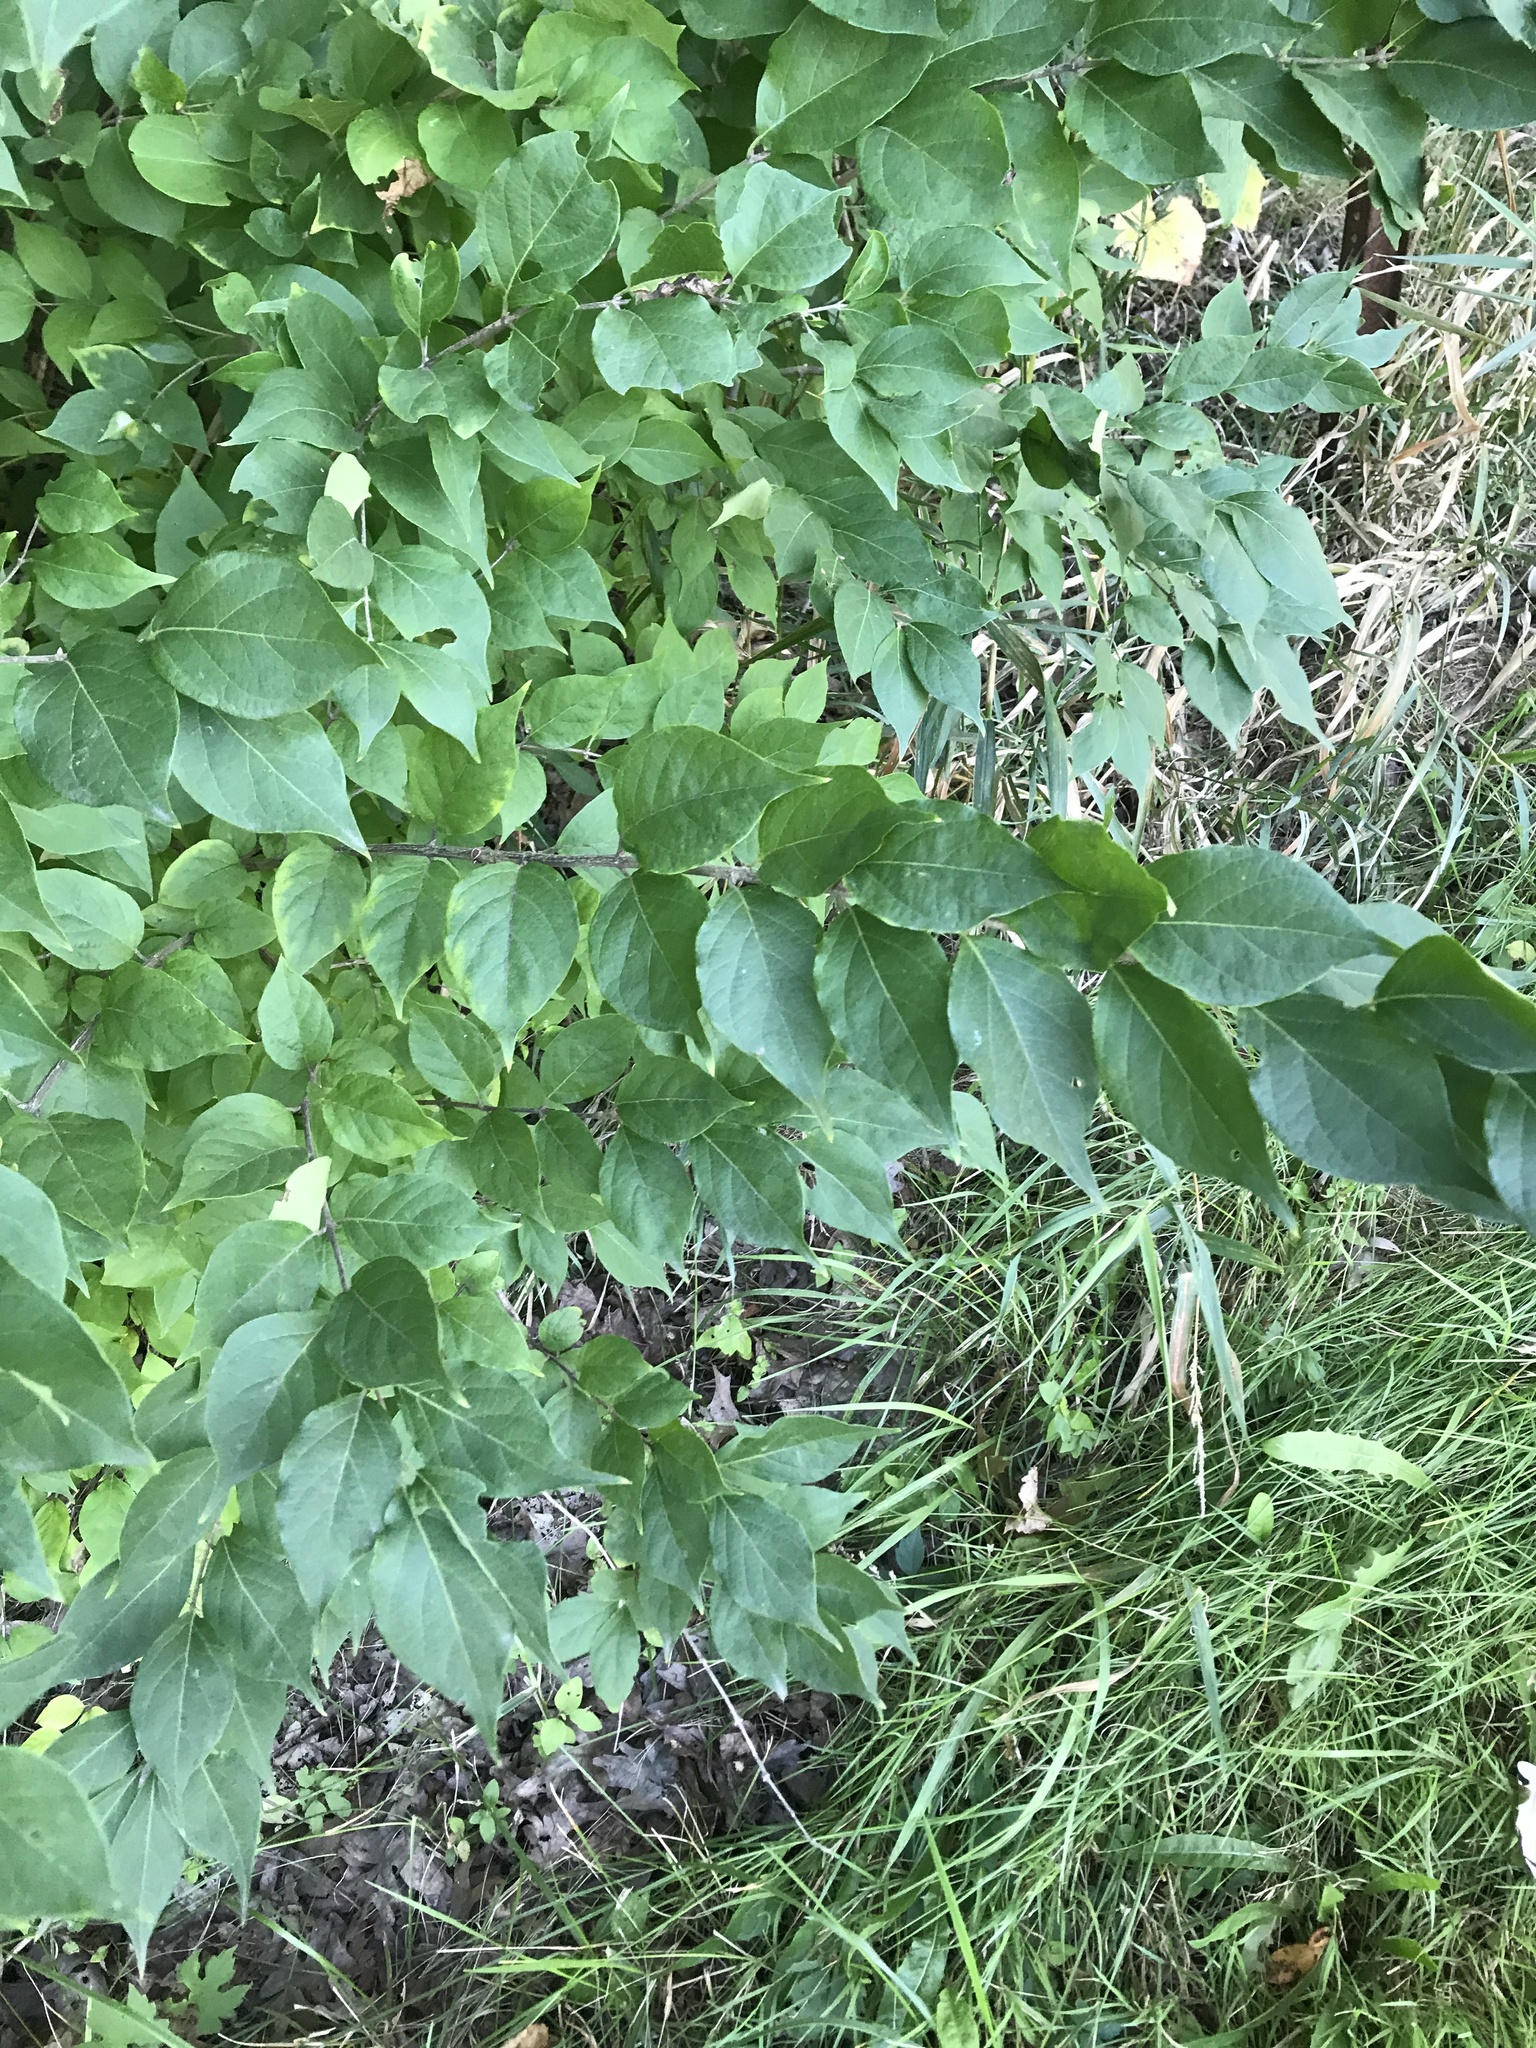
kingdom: Plantae
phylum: Tracheophyta
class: Magnoliopsida
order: Dipsacales
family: Caprifoliaceae
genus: Lonicera
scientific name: Lonicera maackii
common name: Amur honeysuckle
